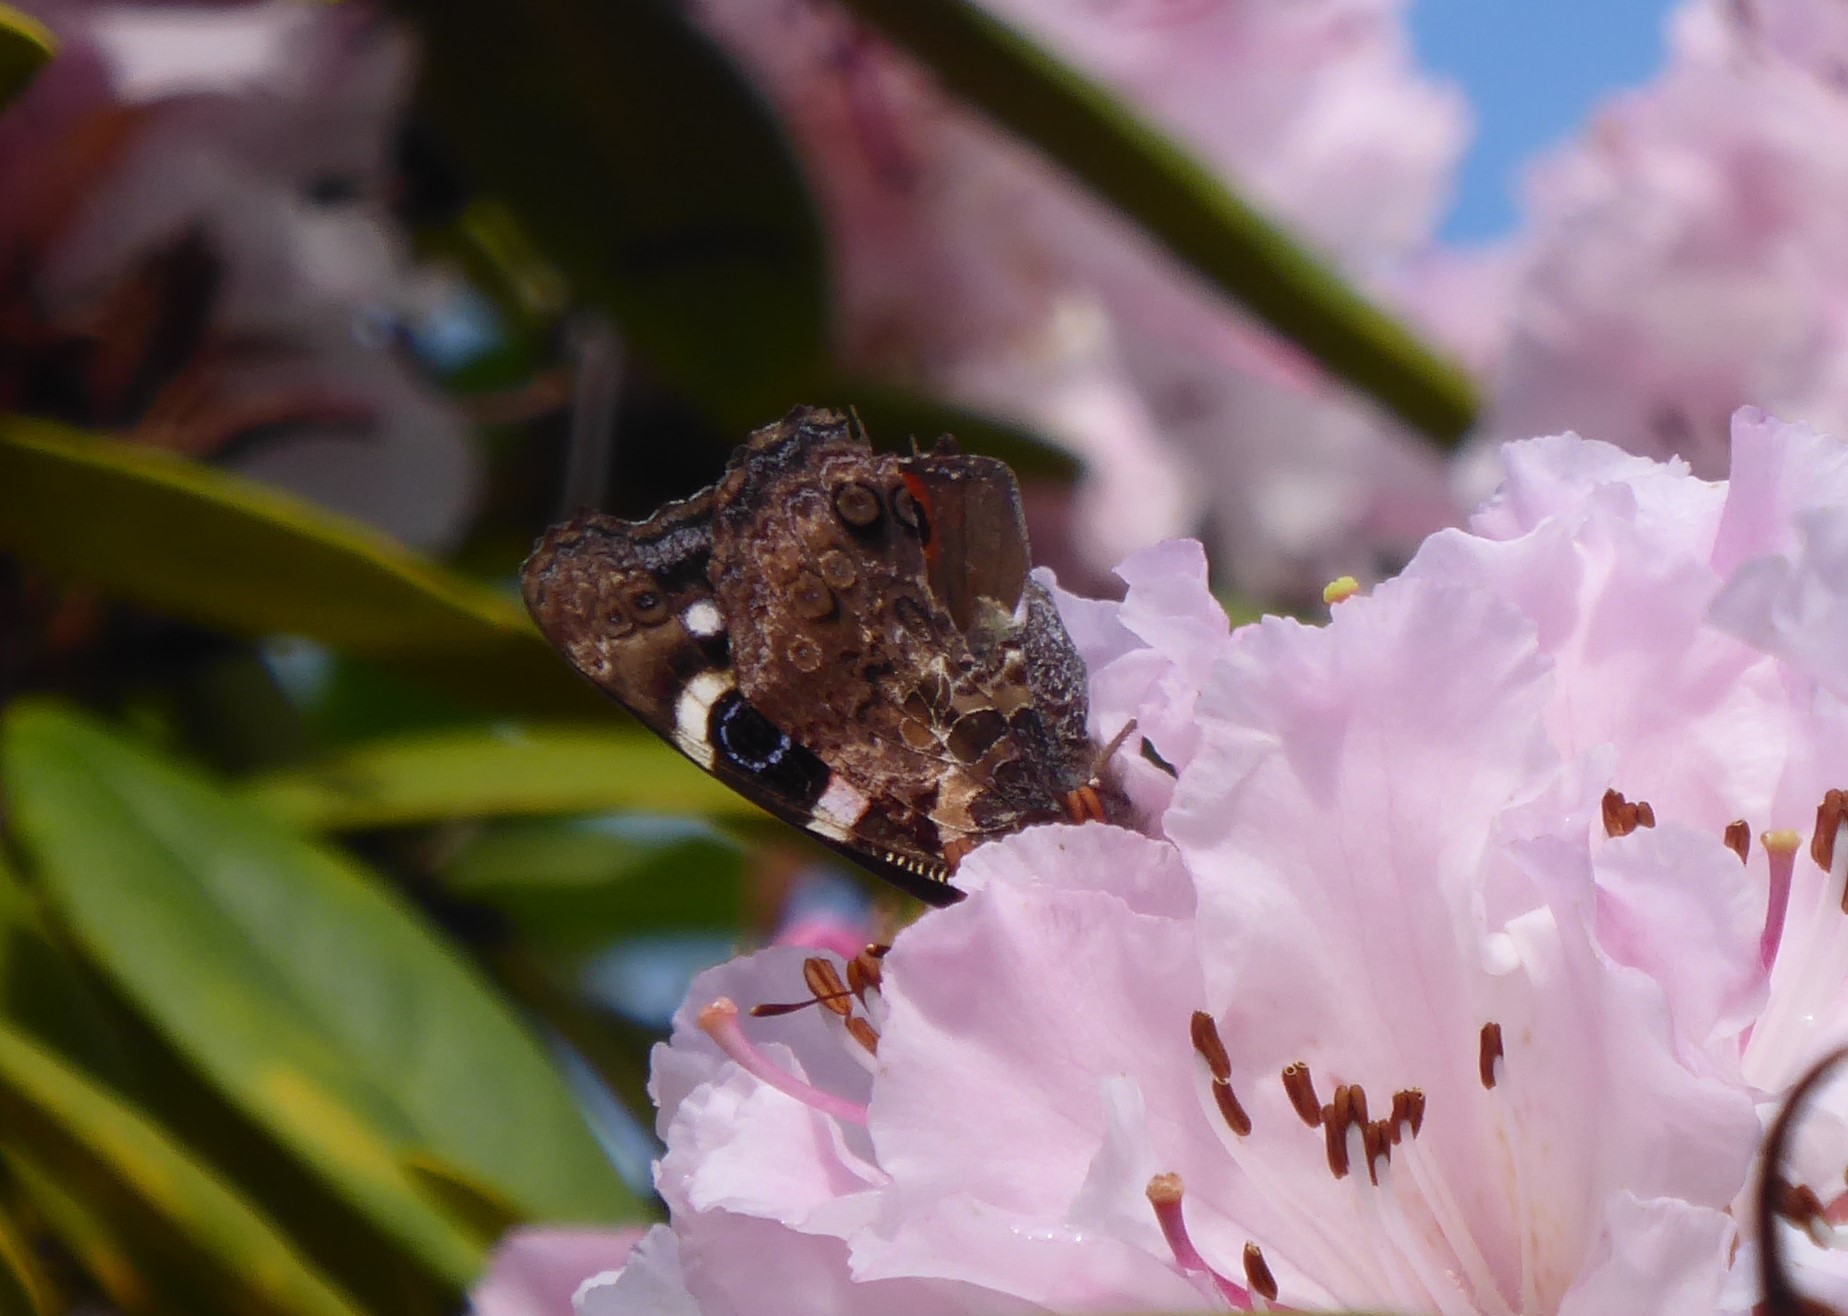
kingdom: Animalia
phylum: Arthropoda
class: Insecta
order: Lepidoptera
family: Nymphalidae
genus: Vanessa
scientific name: Vanessa gonerilla
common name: New zealand red admiral
